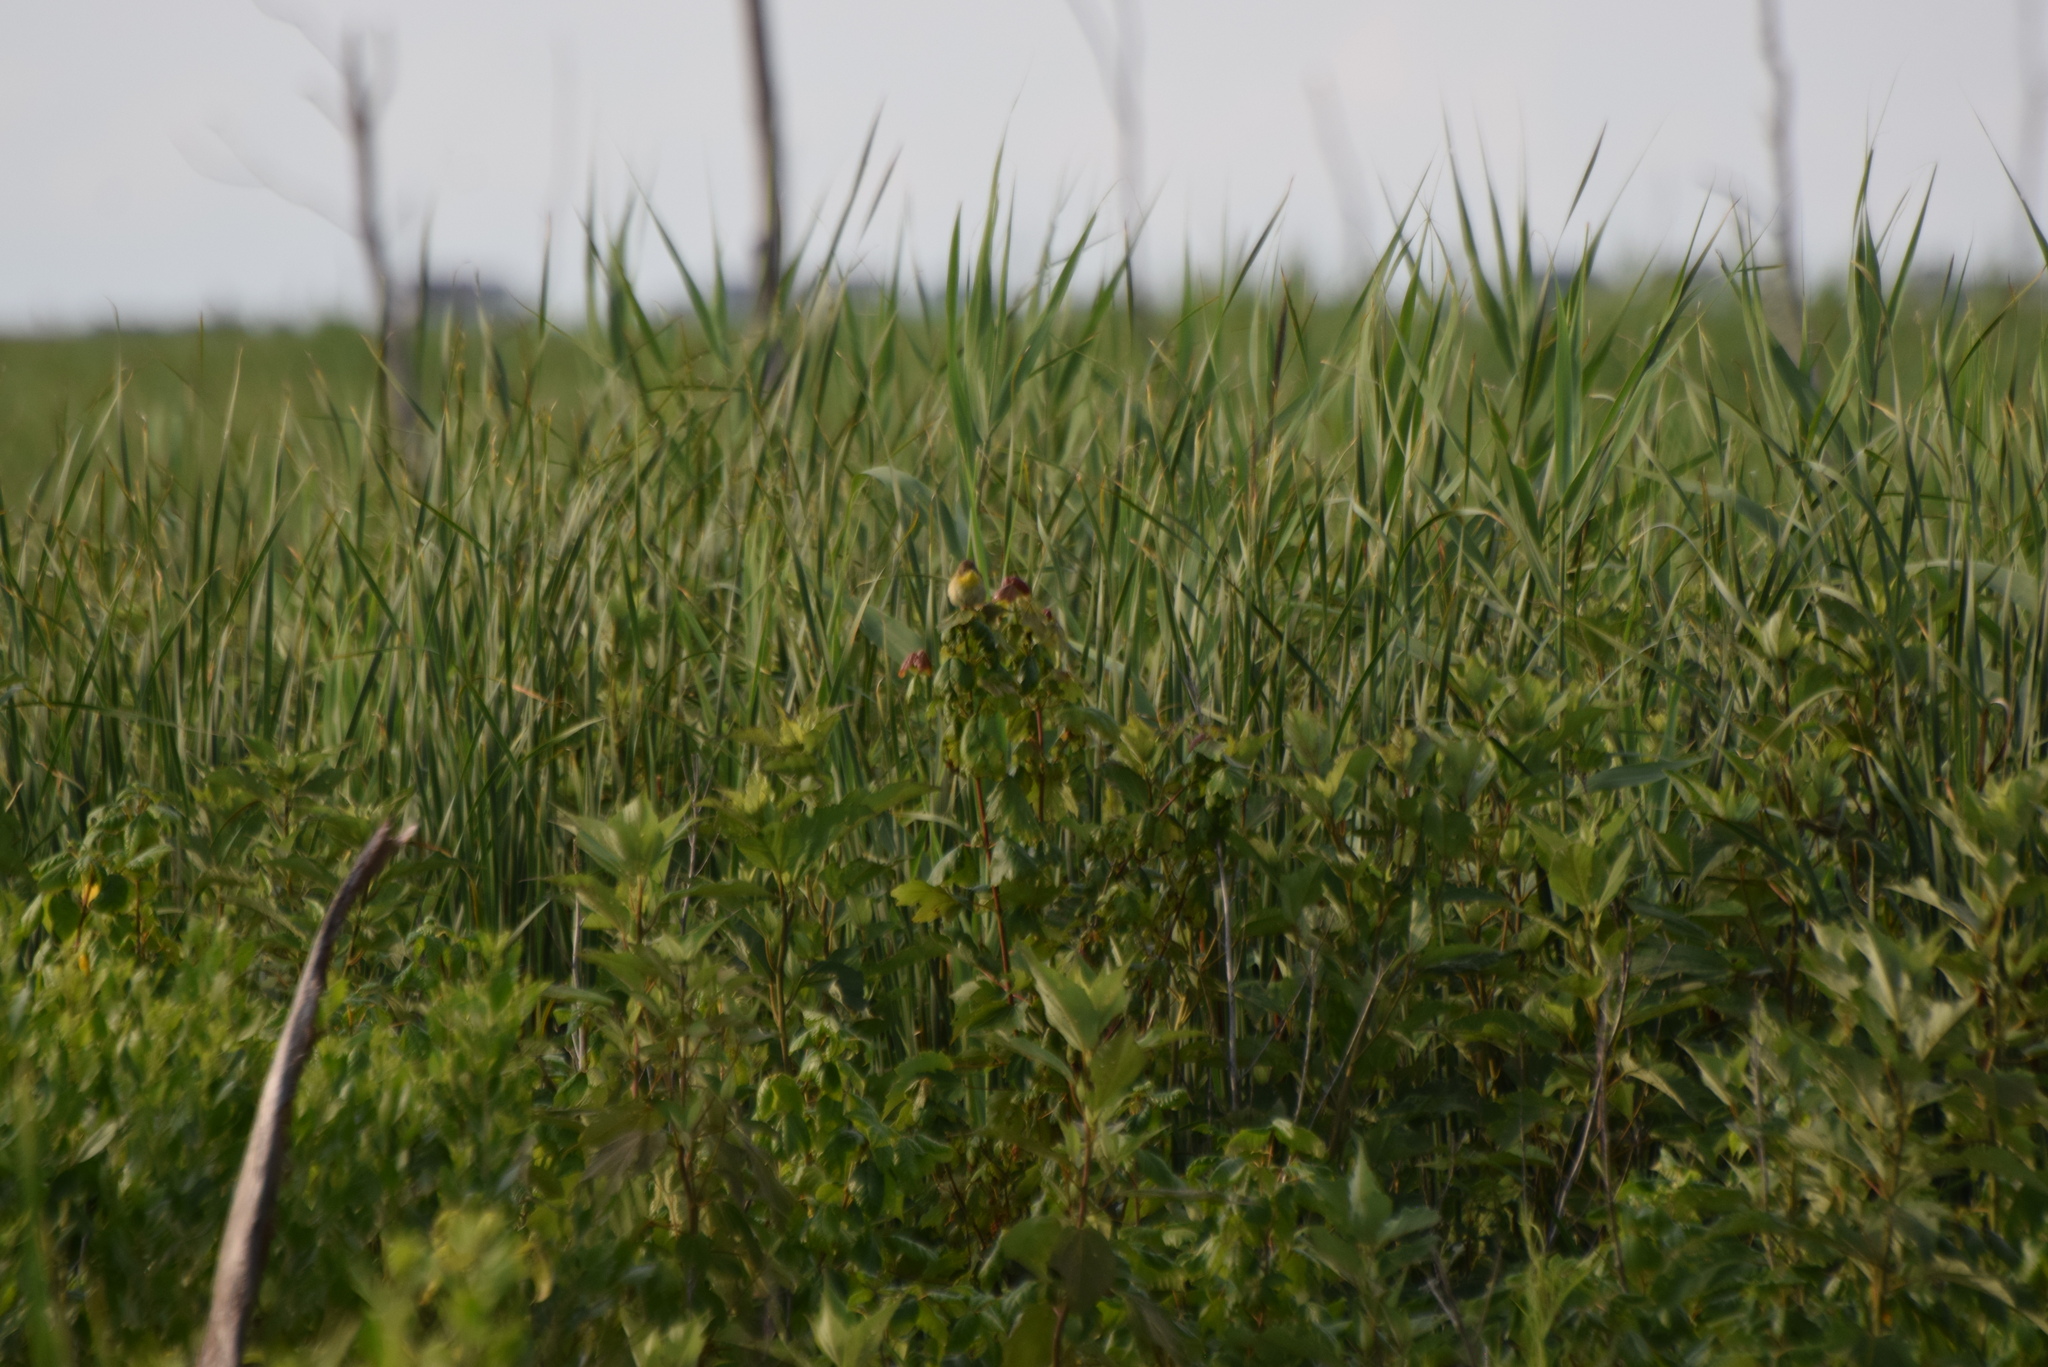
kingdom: Animalia
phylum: Chordata
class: Aves
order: Passeriformes
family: Parulidae
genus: Geothlypis
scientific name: Geothlypis trichas
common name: Common yellowthroat
